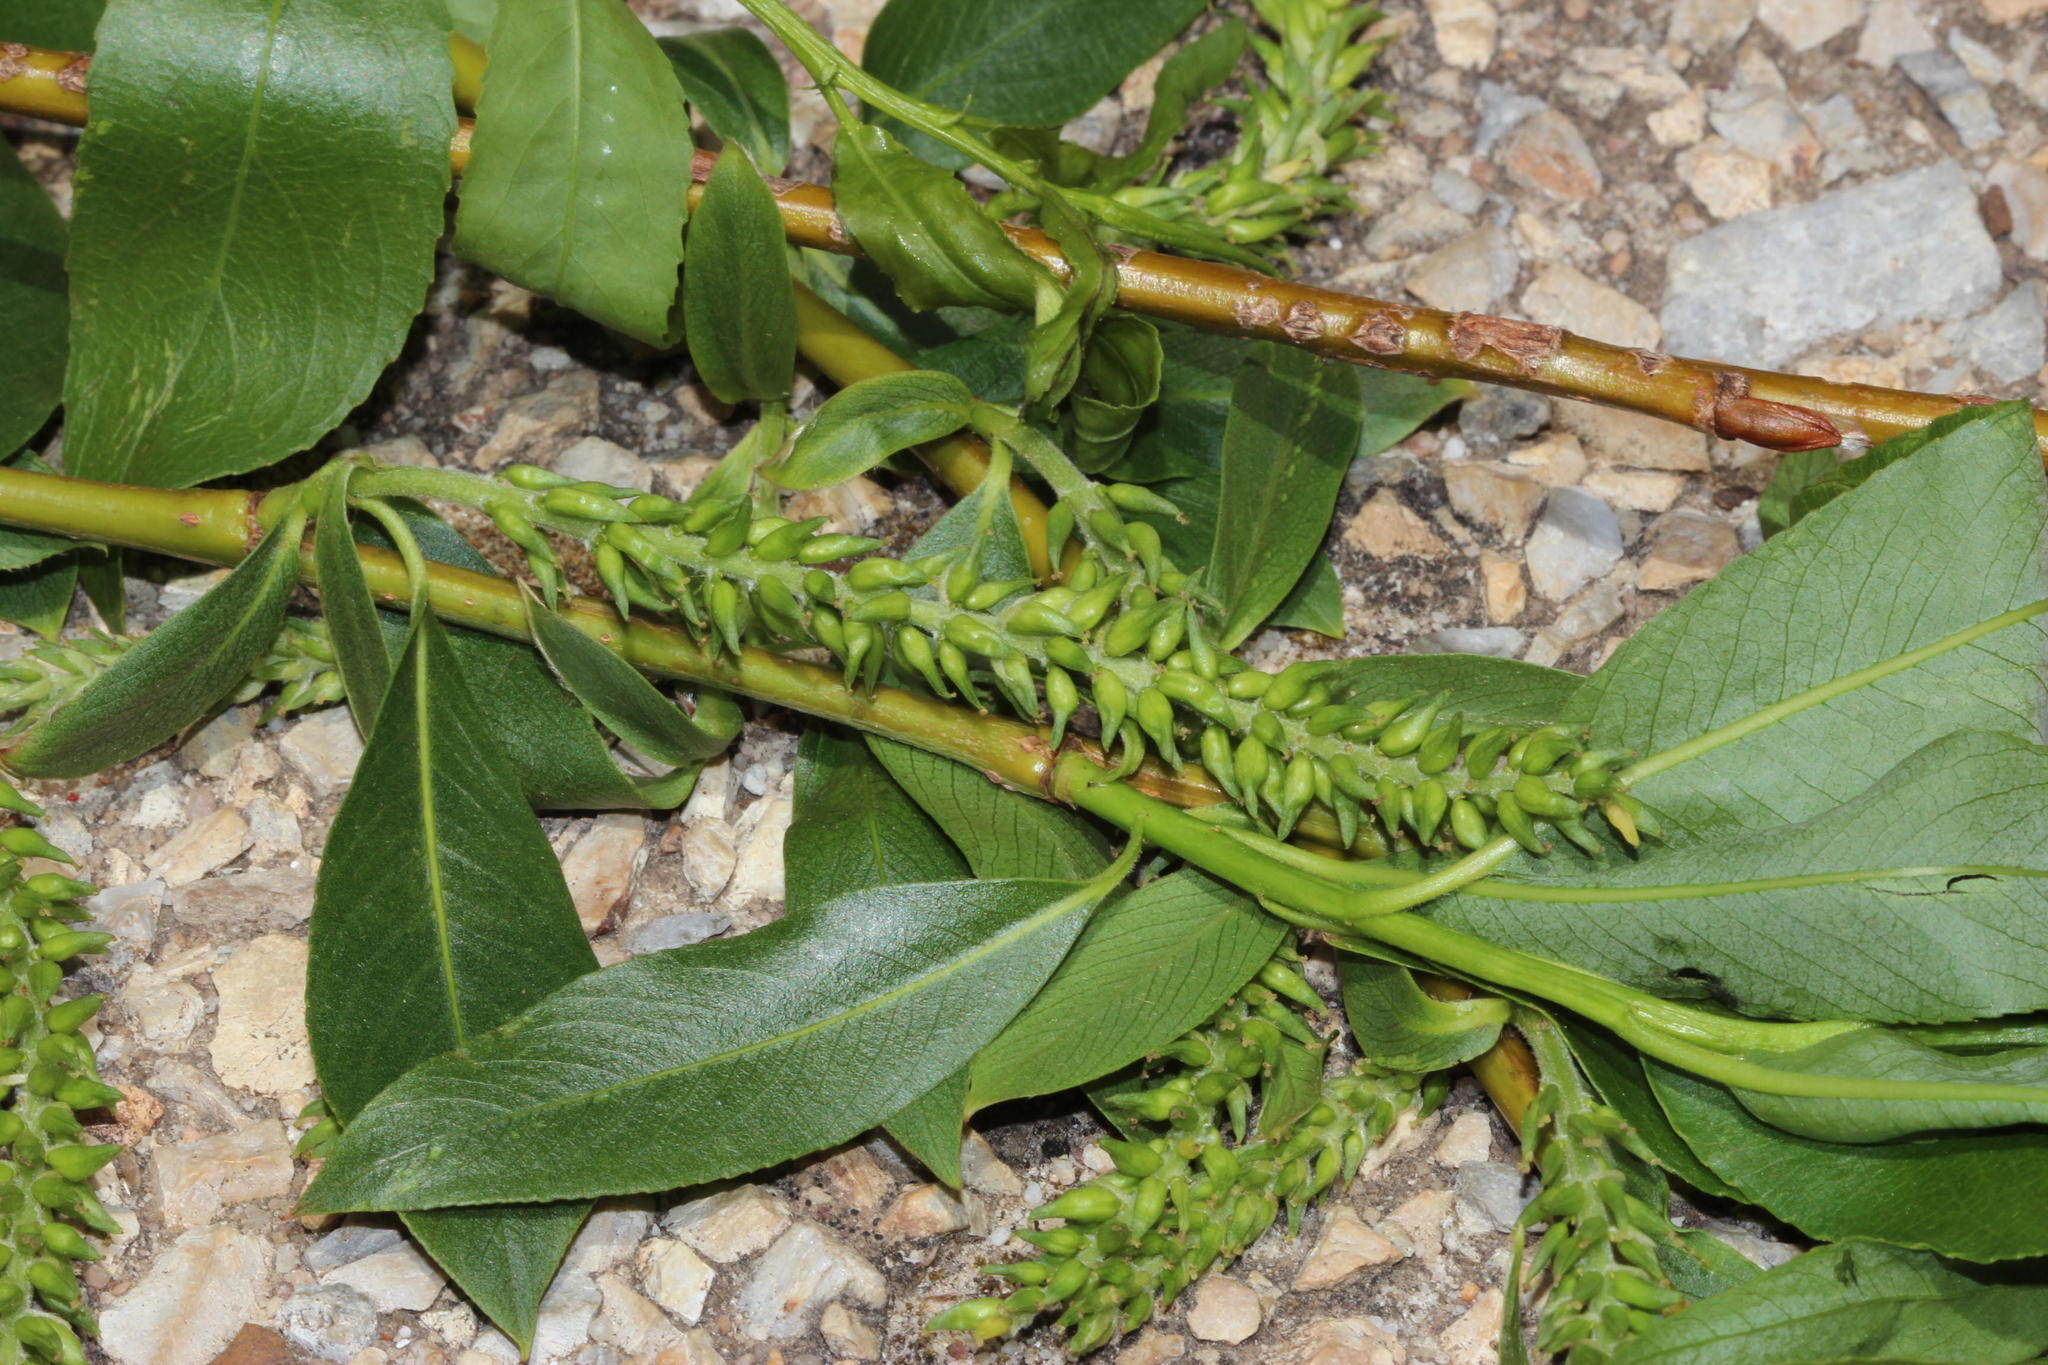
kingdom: Plantae
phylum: Tracheophyta
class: Magnoliopsida
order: Malpighiales
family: Salicaceae
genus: Salix
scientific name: Salix babylonica
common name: Weeping willow
